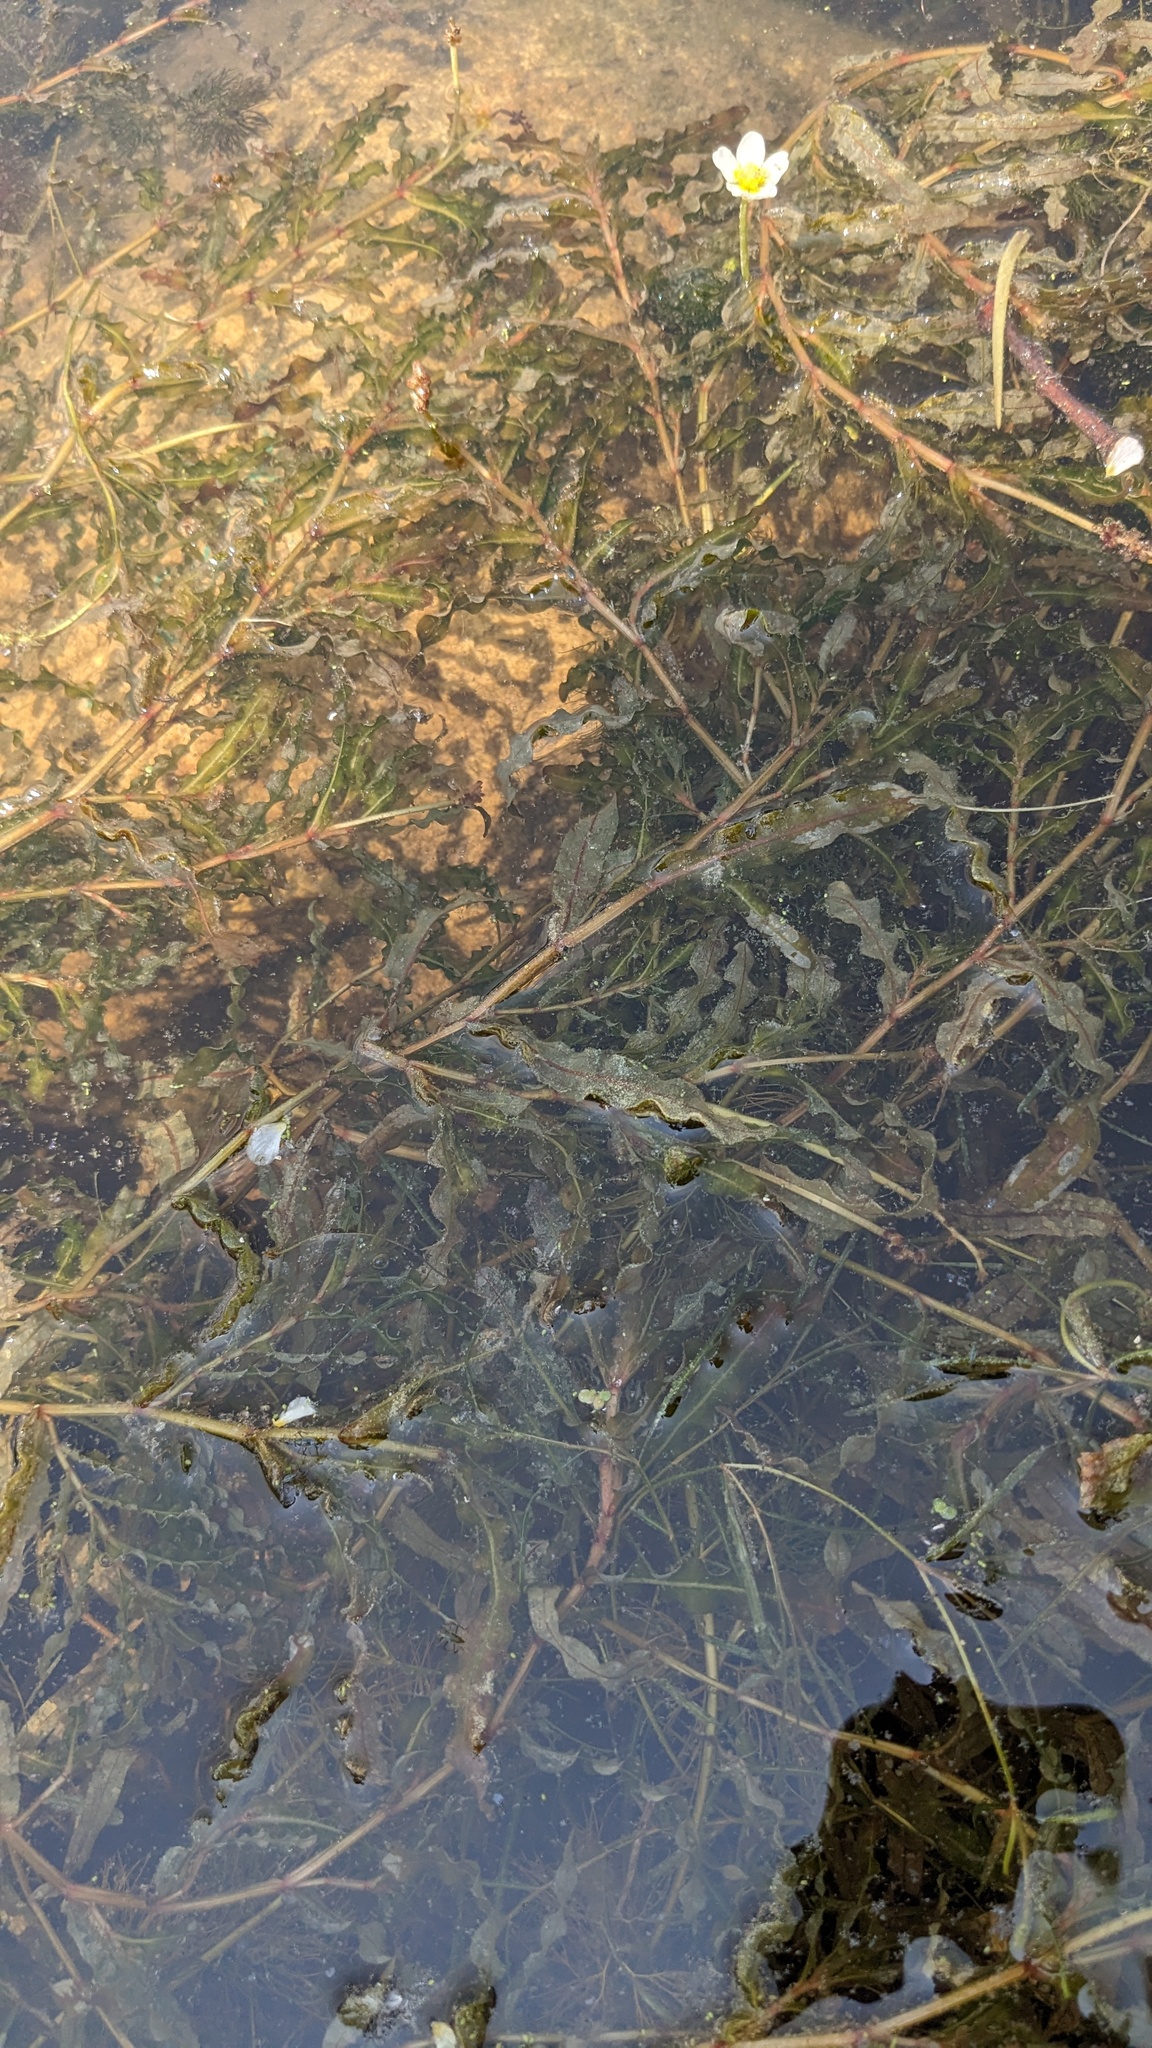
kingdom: Plantae
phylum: Tracheophyta
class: Liliopsida
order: Alismatales
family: Potamogetonaceae
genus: Potamogeton
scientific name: Potamogeton crispus
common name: Curled pondweed
